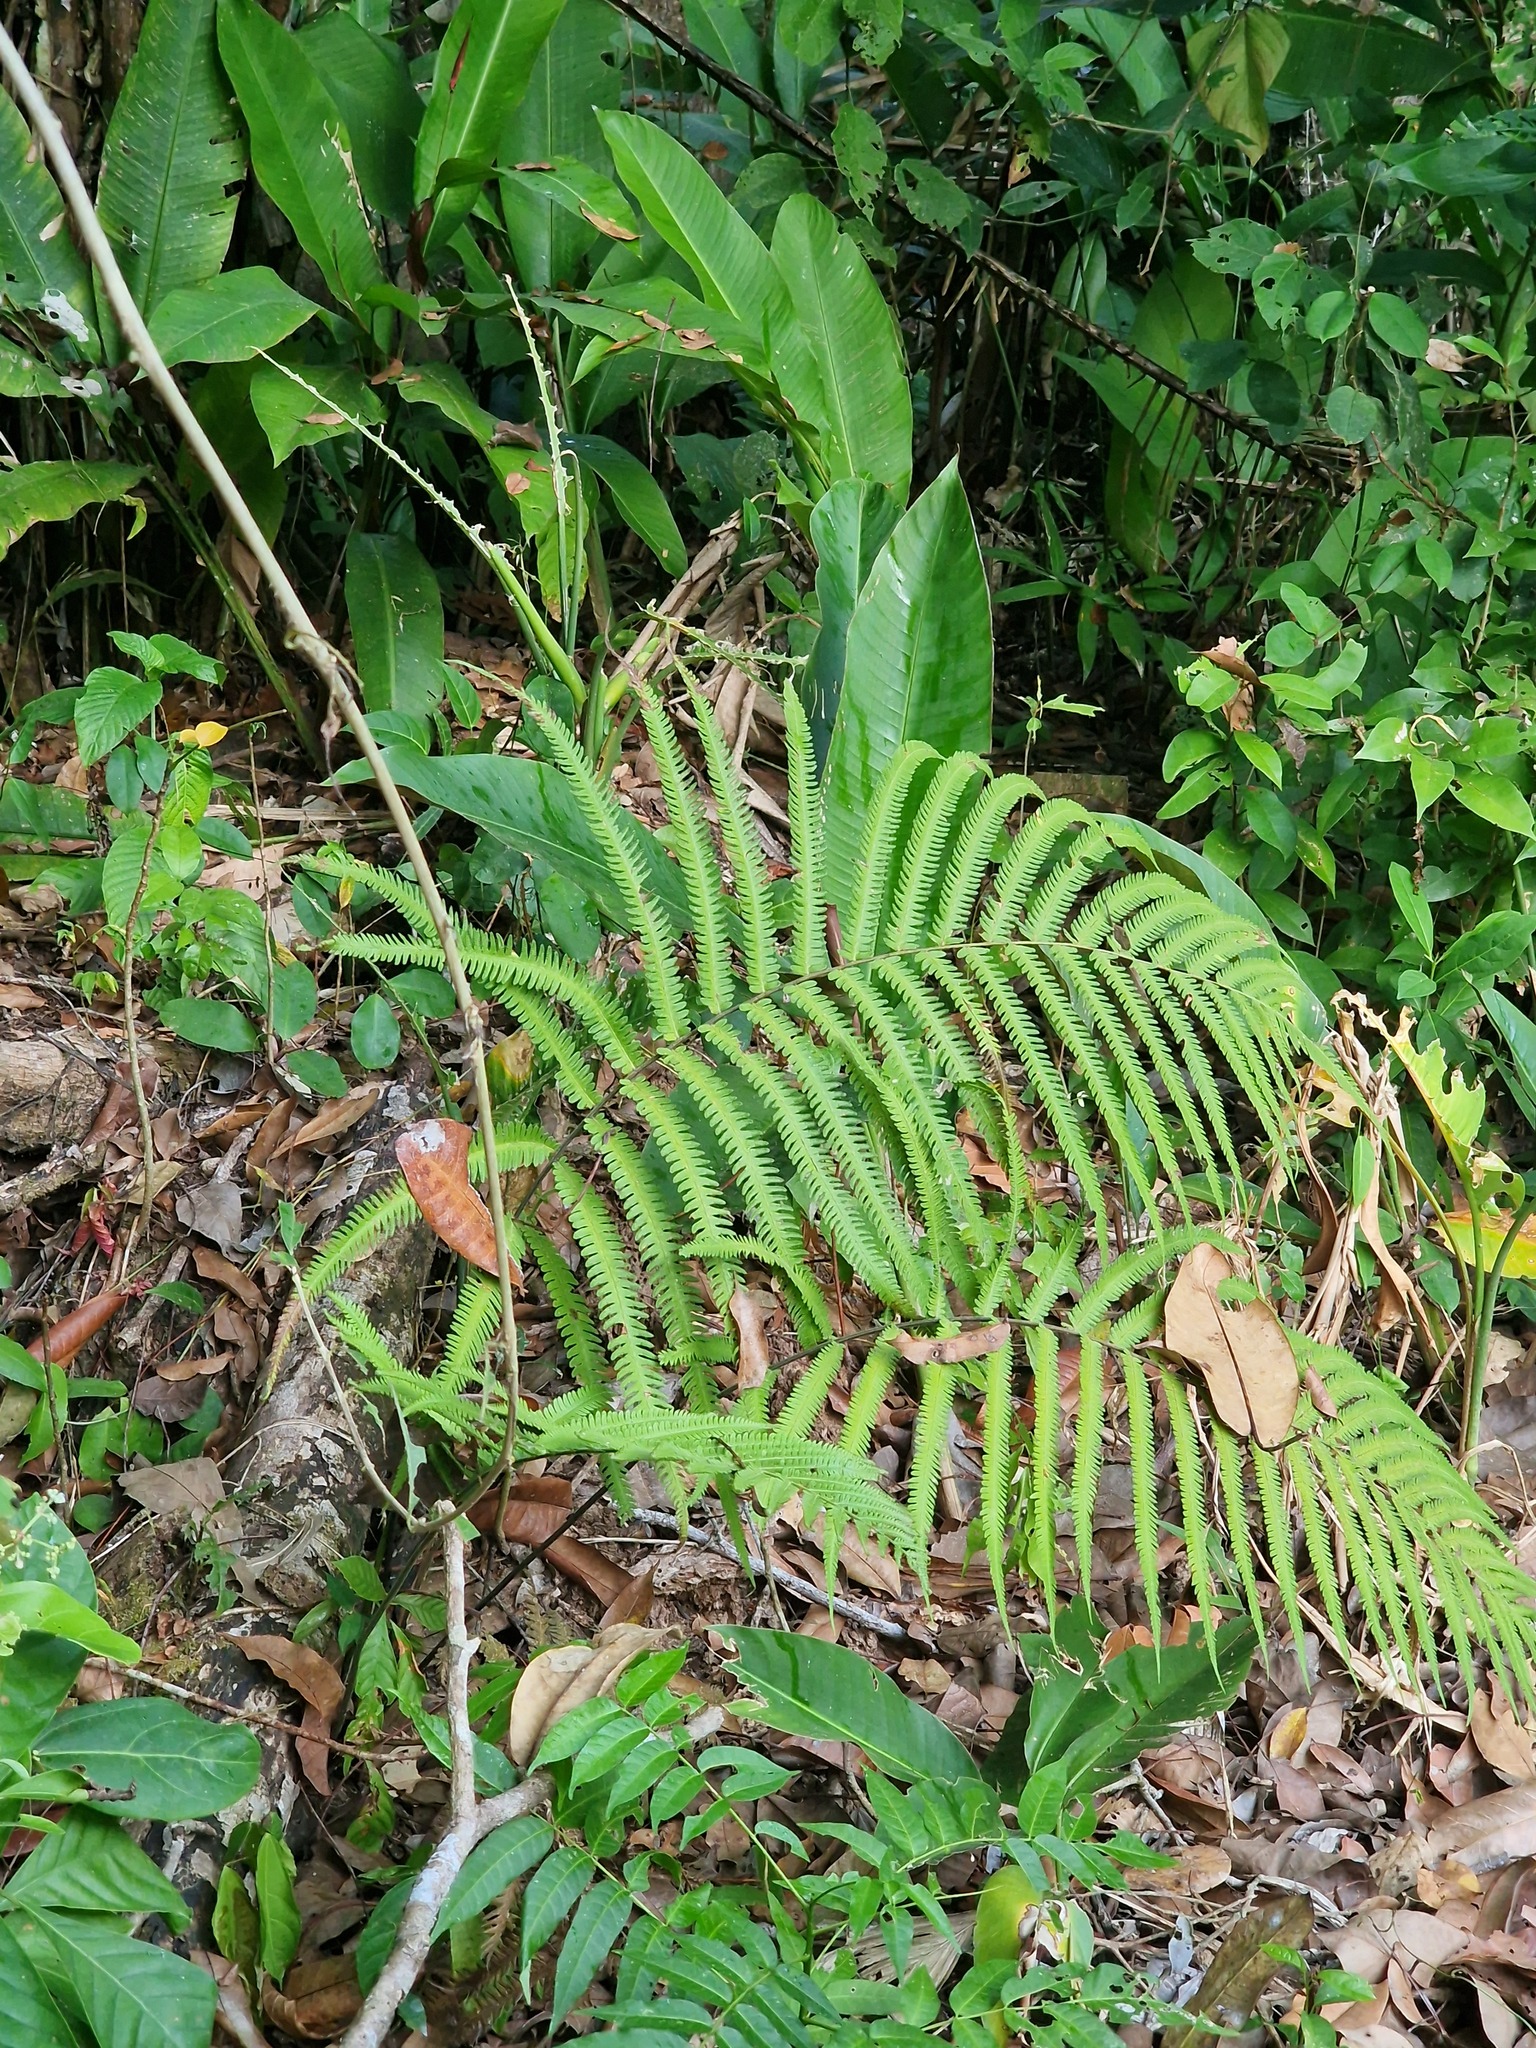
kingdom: Plantae
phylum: Tracheophyta
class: Polypodiopsida
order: Polypodiales
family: Thelypteridaceae
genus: Amblovenatum
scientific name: Amblovenatum opulentum
